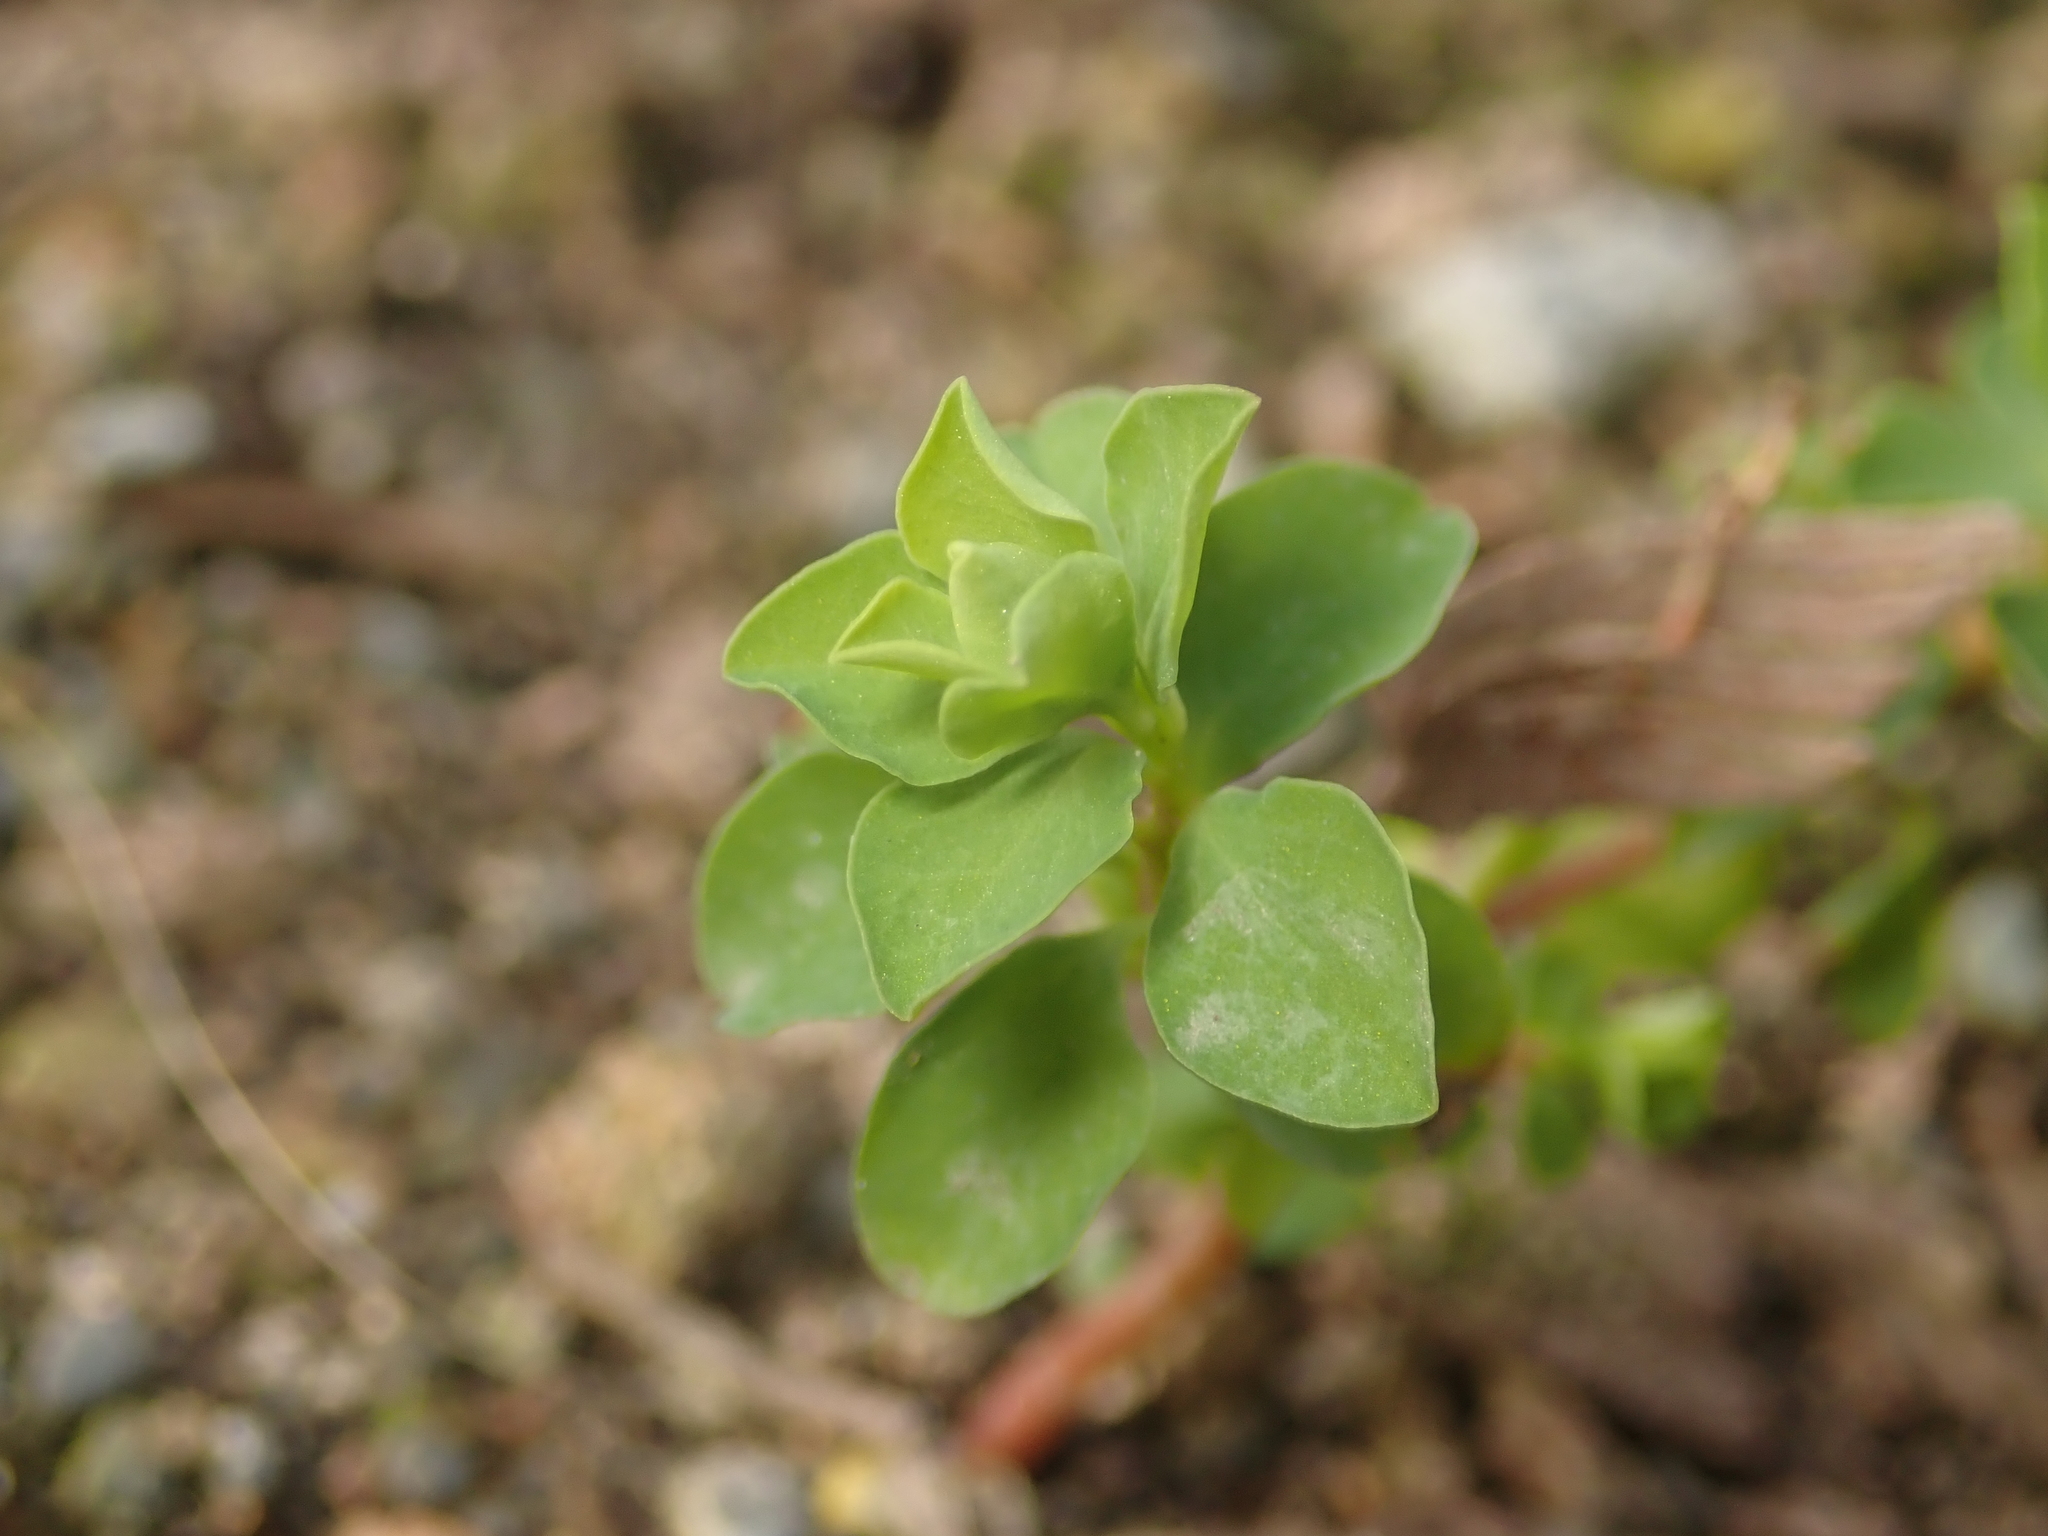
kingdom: Plantae
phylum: Tracheophyta
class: Magnoliopsida
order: Malpighiales
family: Euphorbiaceae
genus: Euphorbia
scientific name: Euphorbia peplus
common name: Petty spurge
